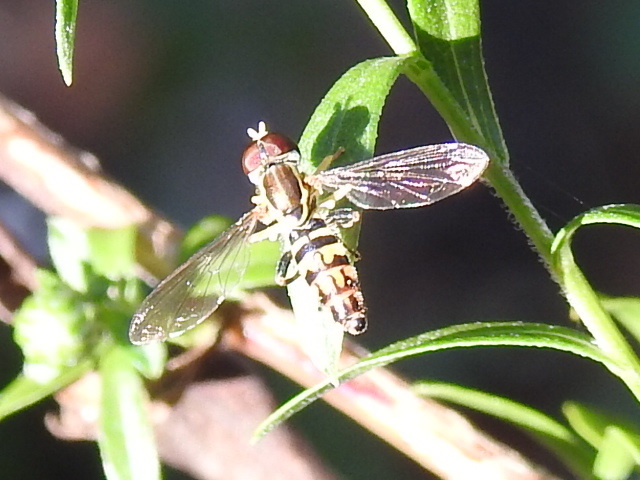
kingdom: Animalia
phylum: Arthropoda
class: Insecta
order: Diptera
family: Syrphidae
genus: Toxomerus
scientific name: Toxomerus geminatus
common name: Eastern calligrapher
